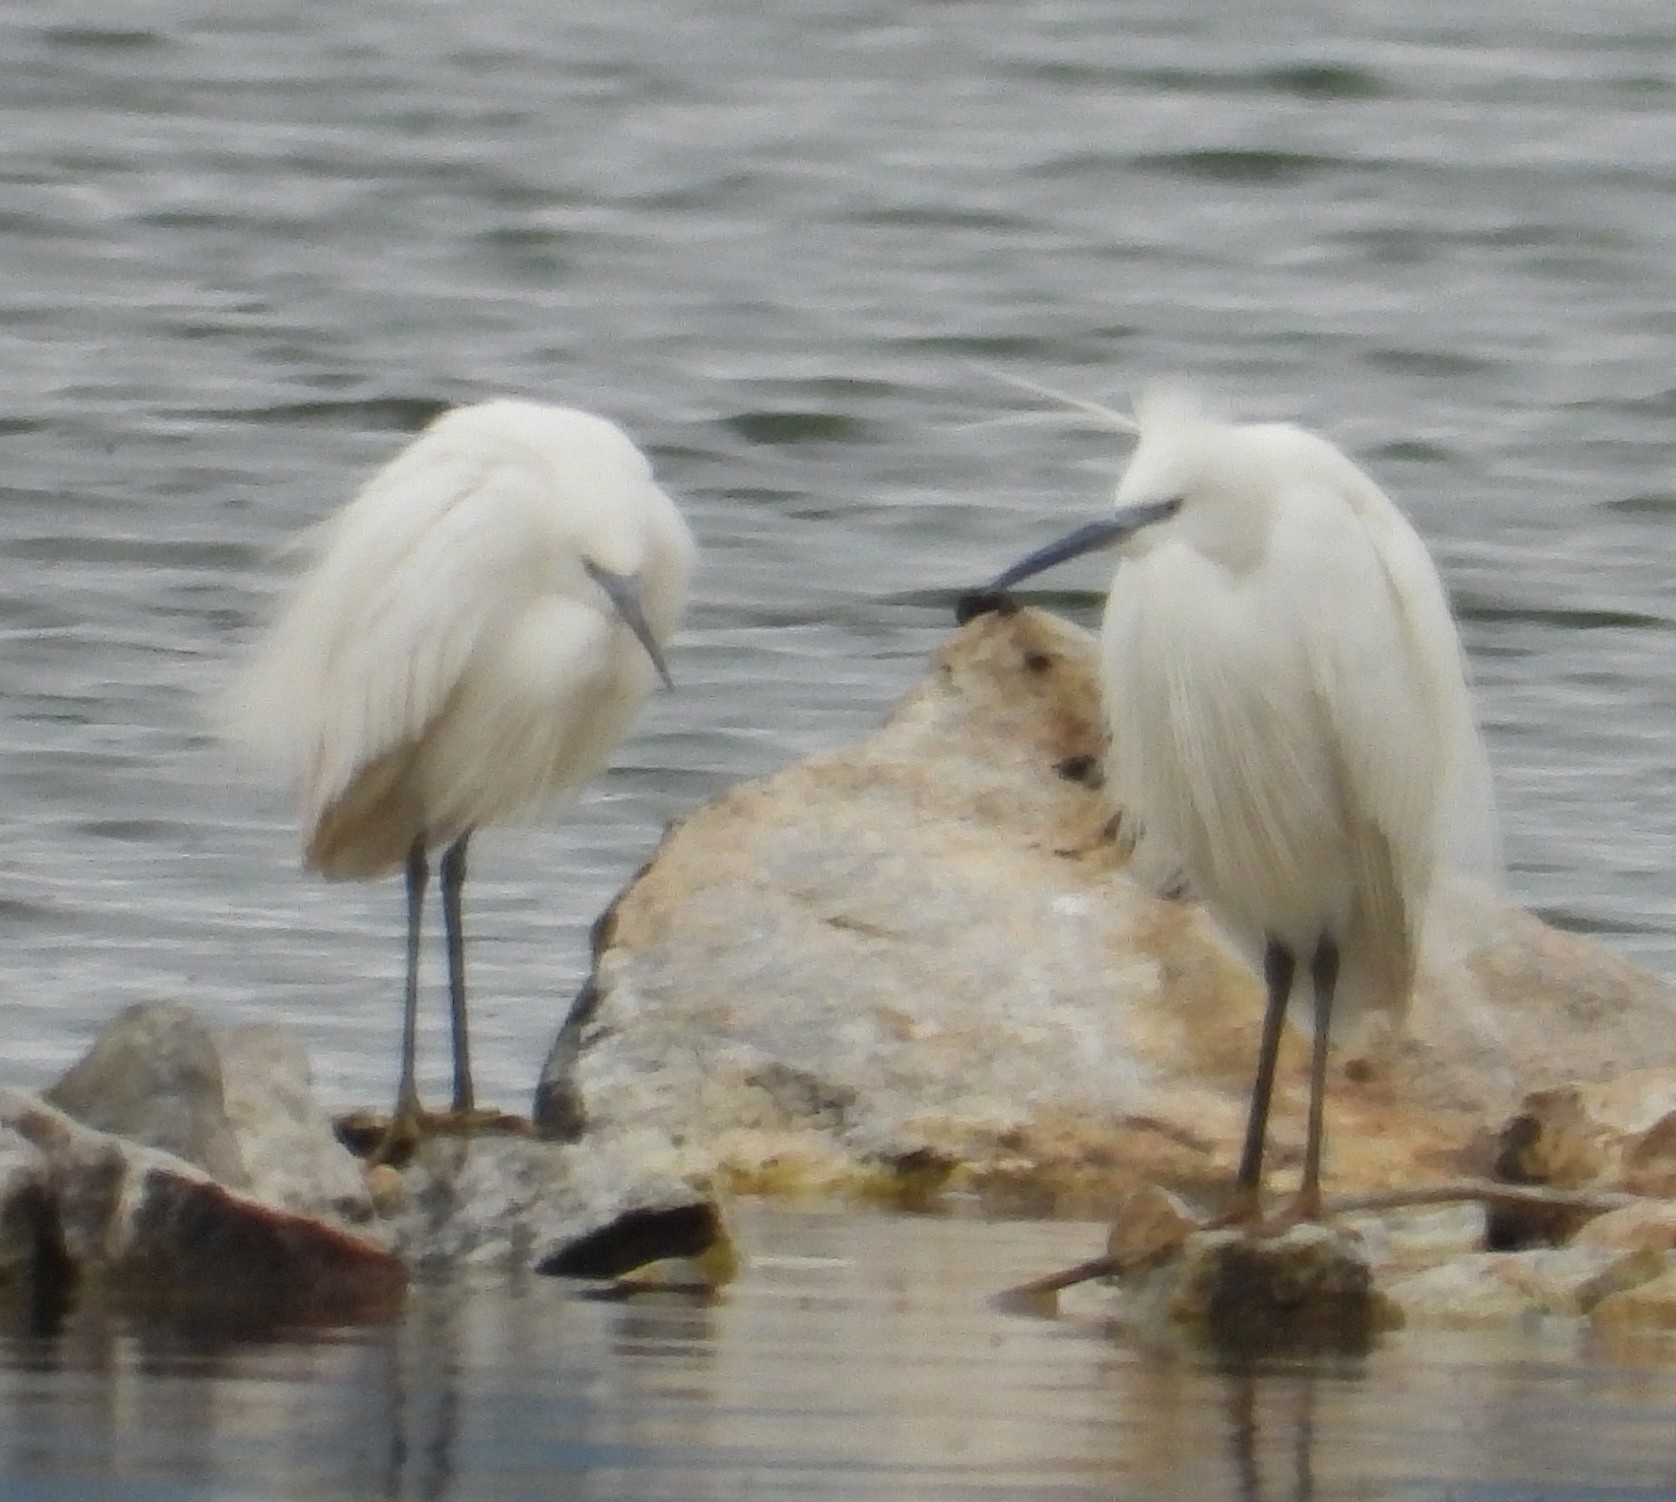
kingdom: Animalia
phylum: Chordata
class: Aves
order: Pelecaniformes
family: Ardeidae
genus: Egretta
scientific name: Egretta garzetta
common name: Little egret
